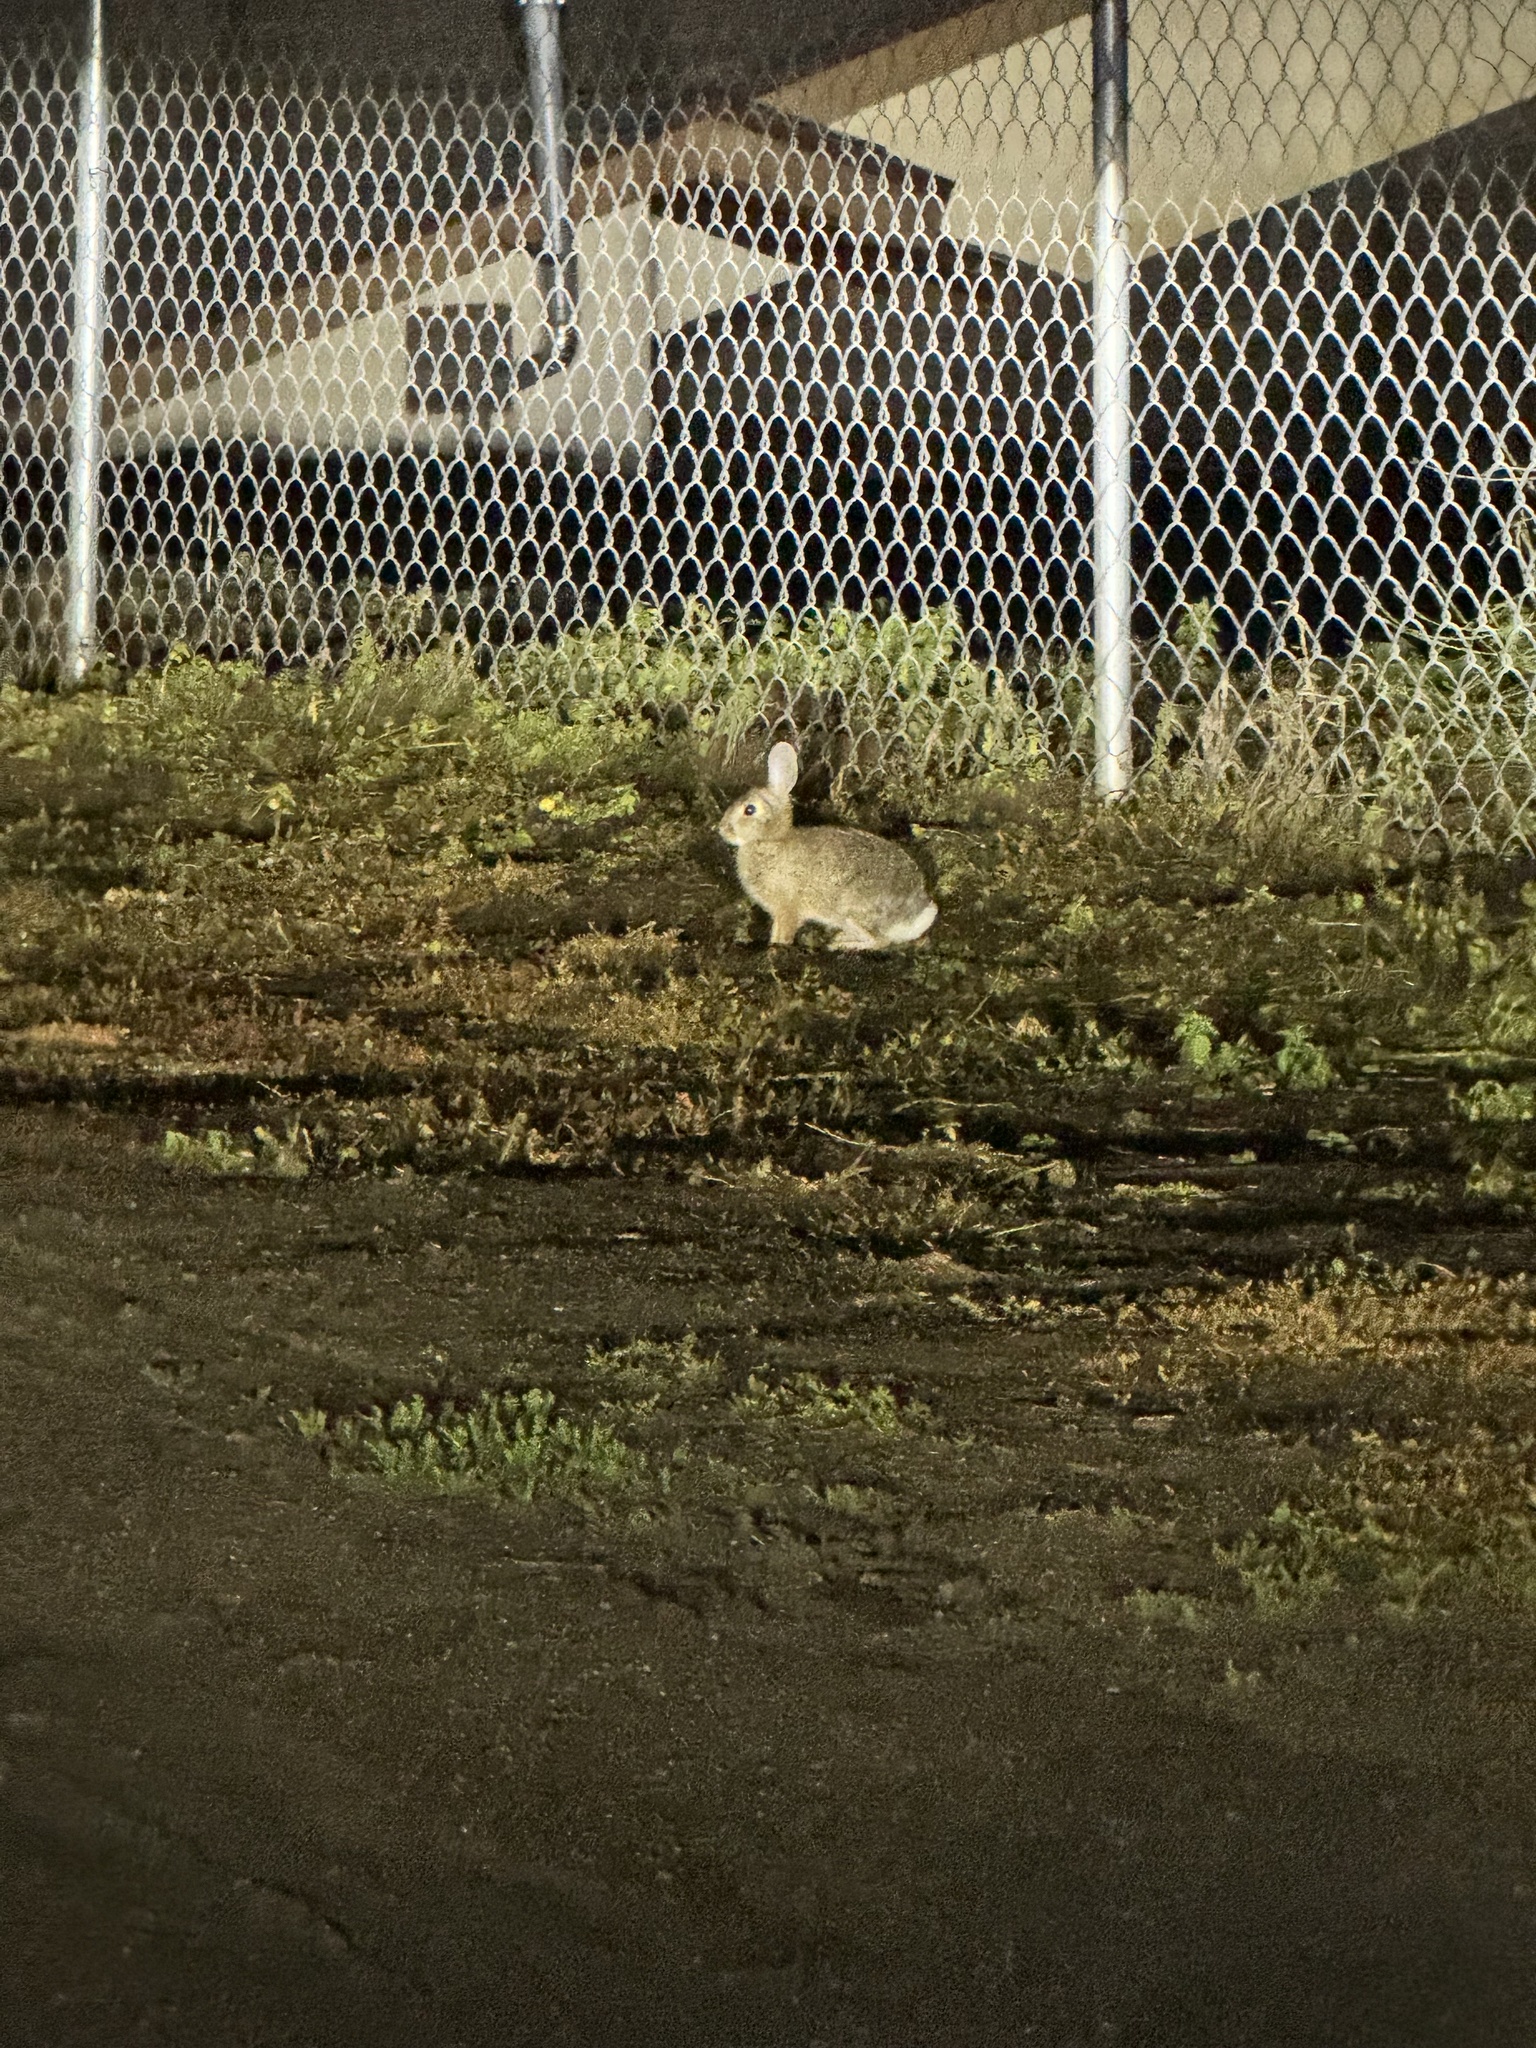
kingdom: Animalia
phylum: Chordata
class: Mammalia
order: Lagomorpha
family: Leporidae
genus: Sylvilagus
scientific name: Sylvilagus audubonii
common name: Desert cottontail
